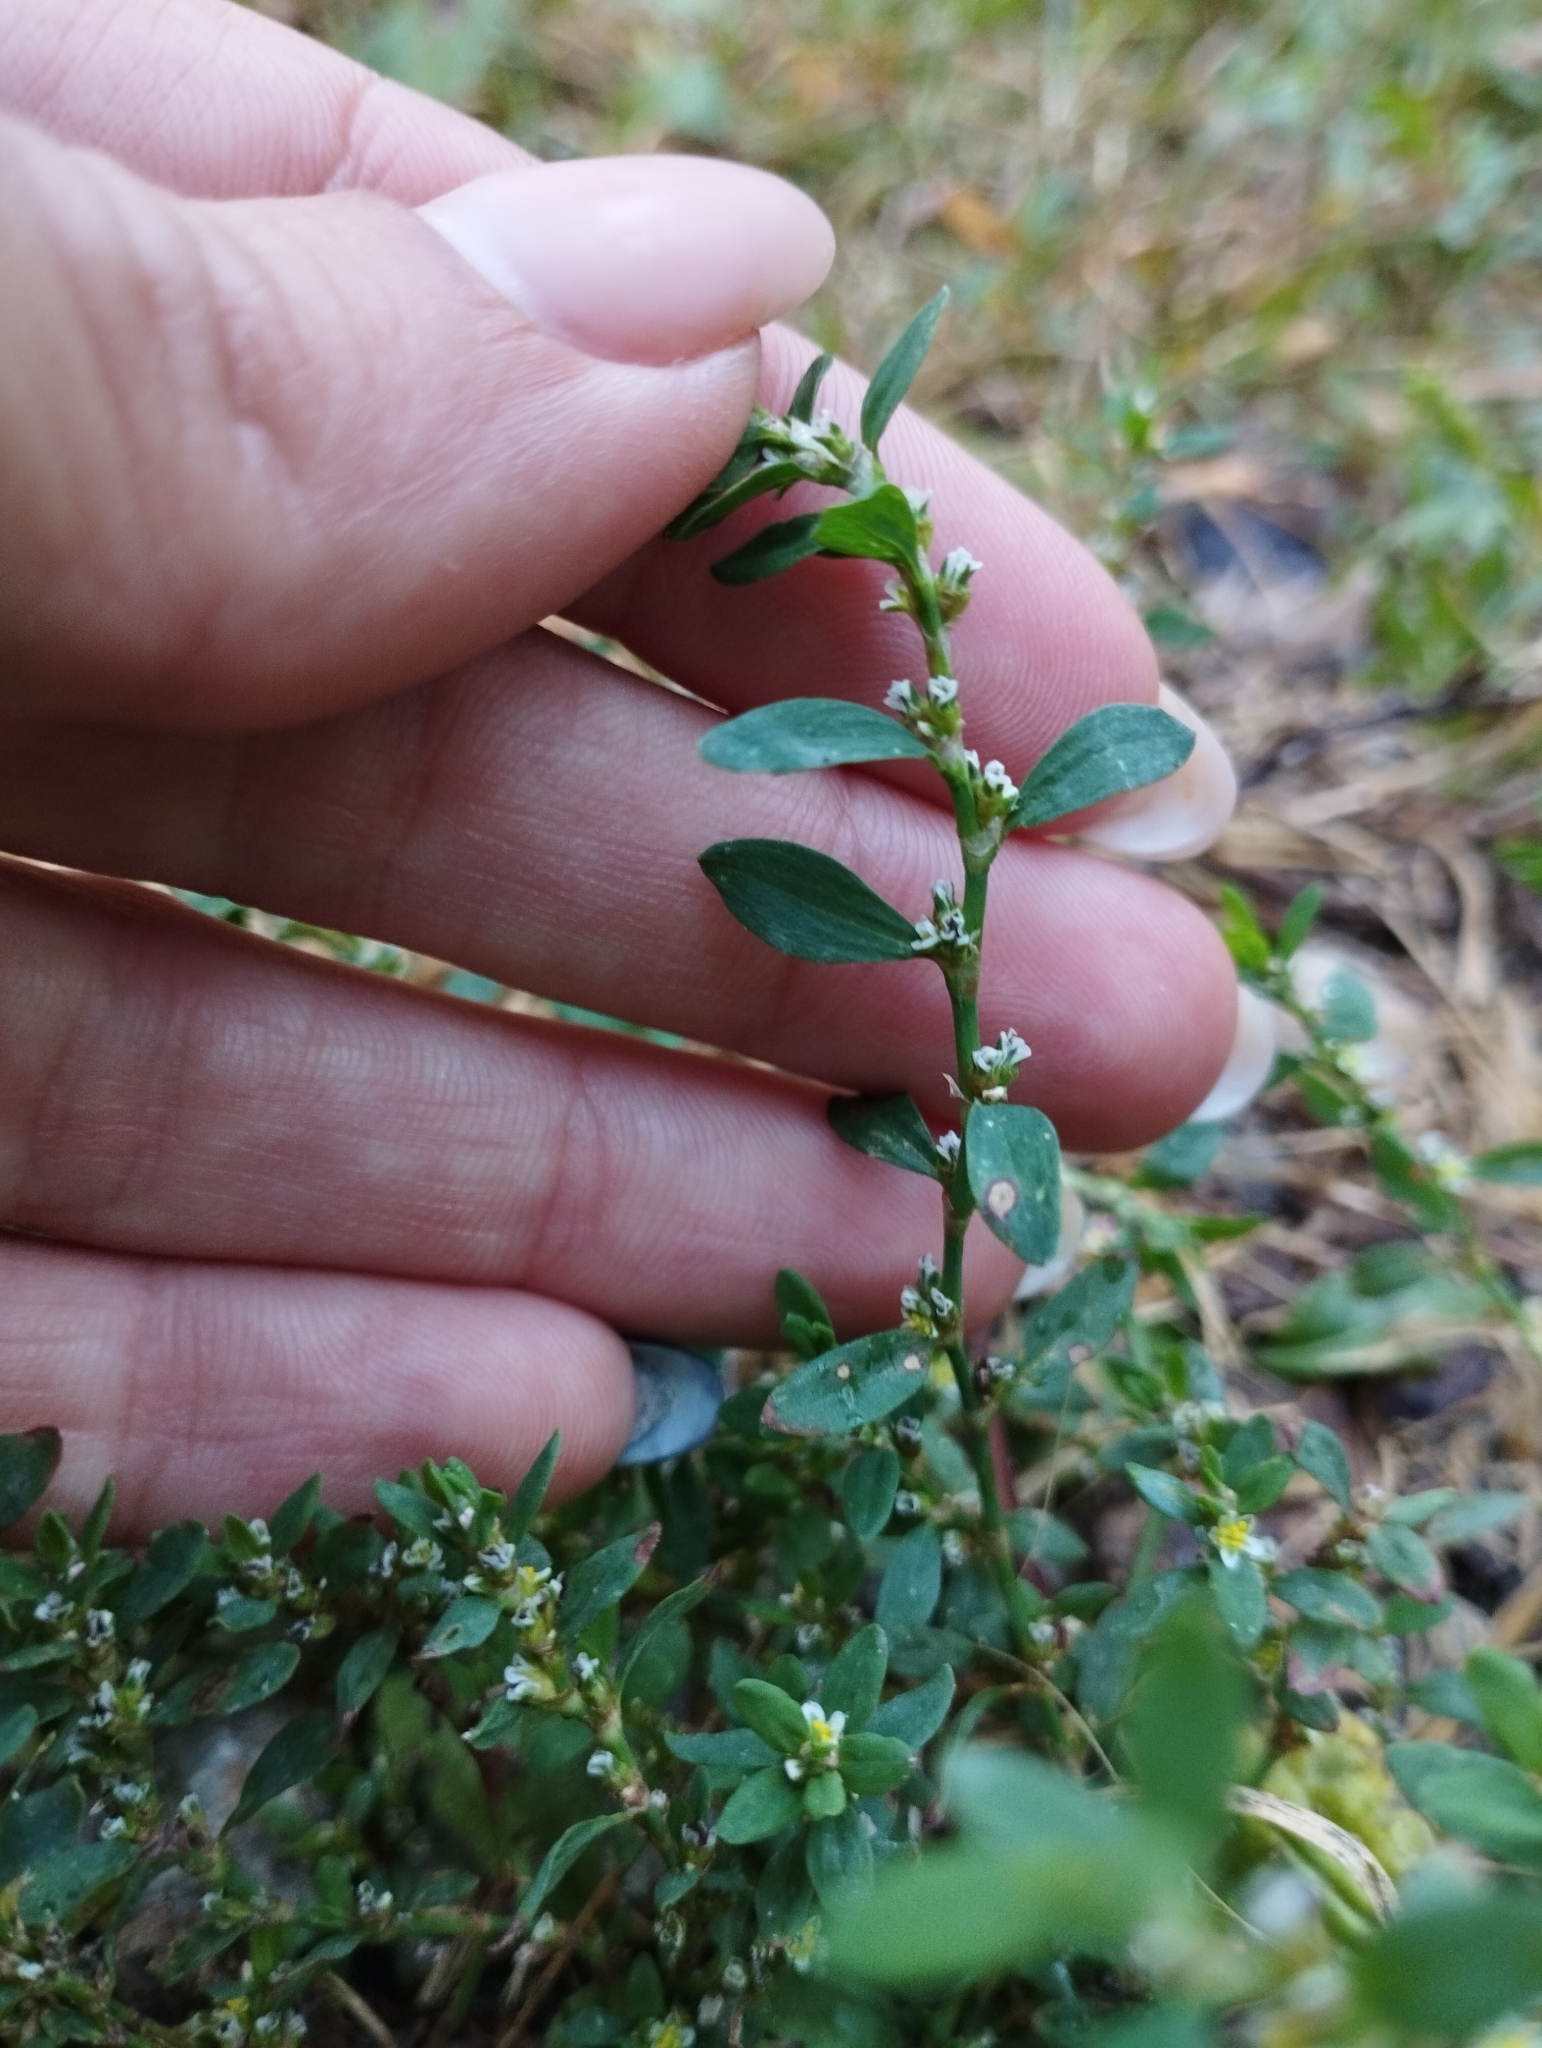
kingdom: Plantae
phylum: Tracheophyta
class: Magnoliopsida
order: Caryophyllales
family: Polygonaceae
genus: Polygonum
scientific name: Polygonum
